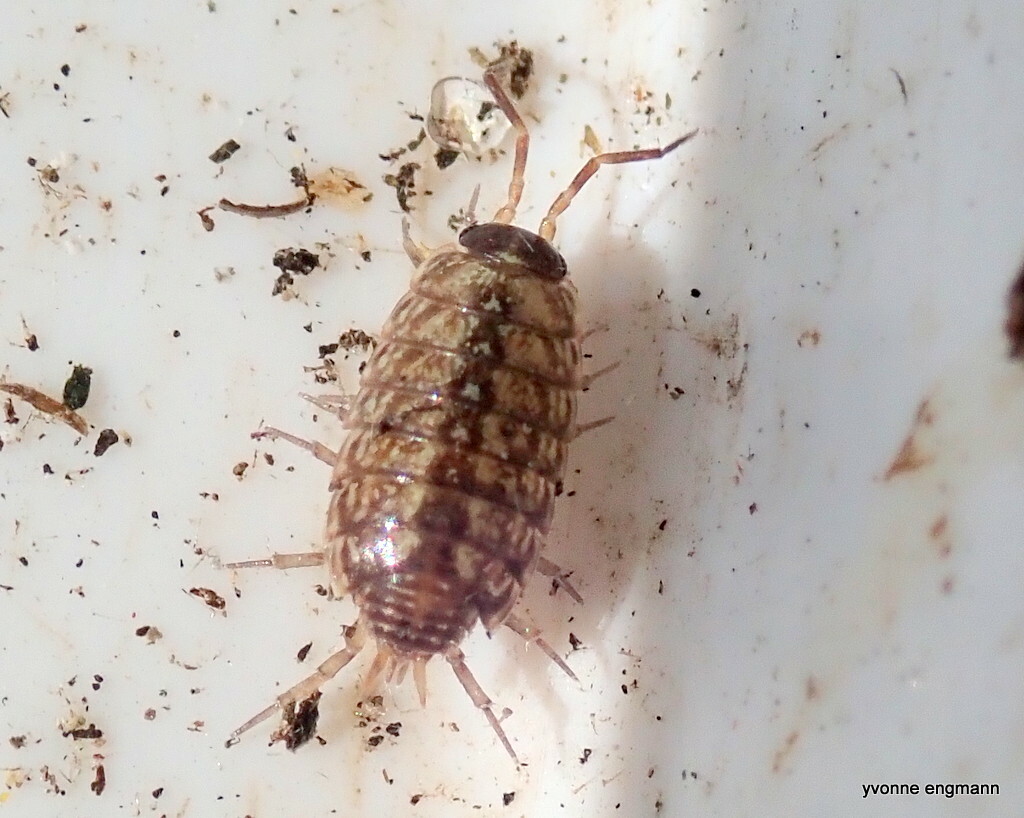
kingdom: Animalia
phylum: Arthropoda
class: Malacostraca
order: Isopoda
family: Philosciidae
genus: Philoscia
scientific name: Philoscia muscorum
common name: Common striped woodlouse
